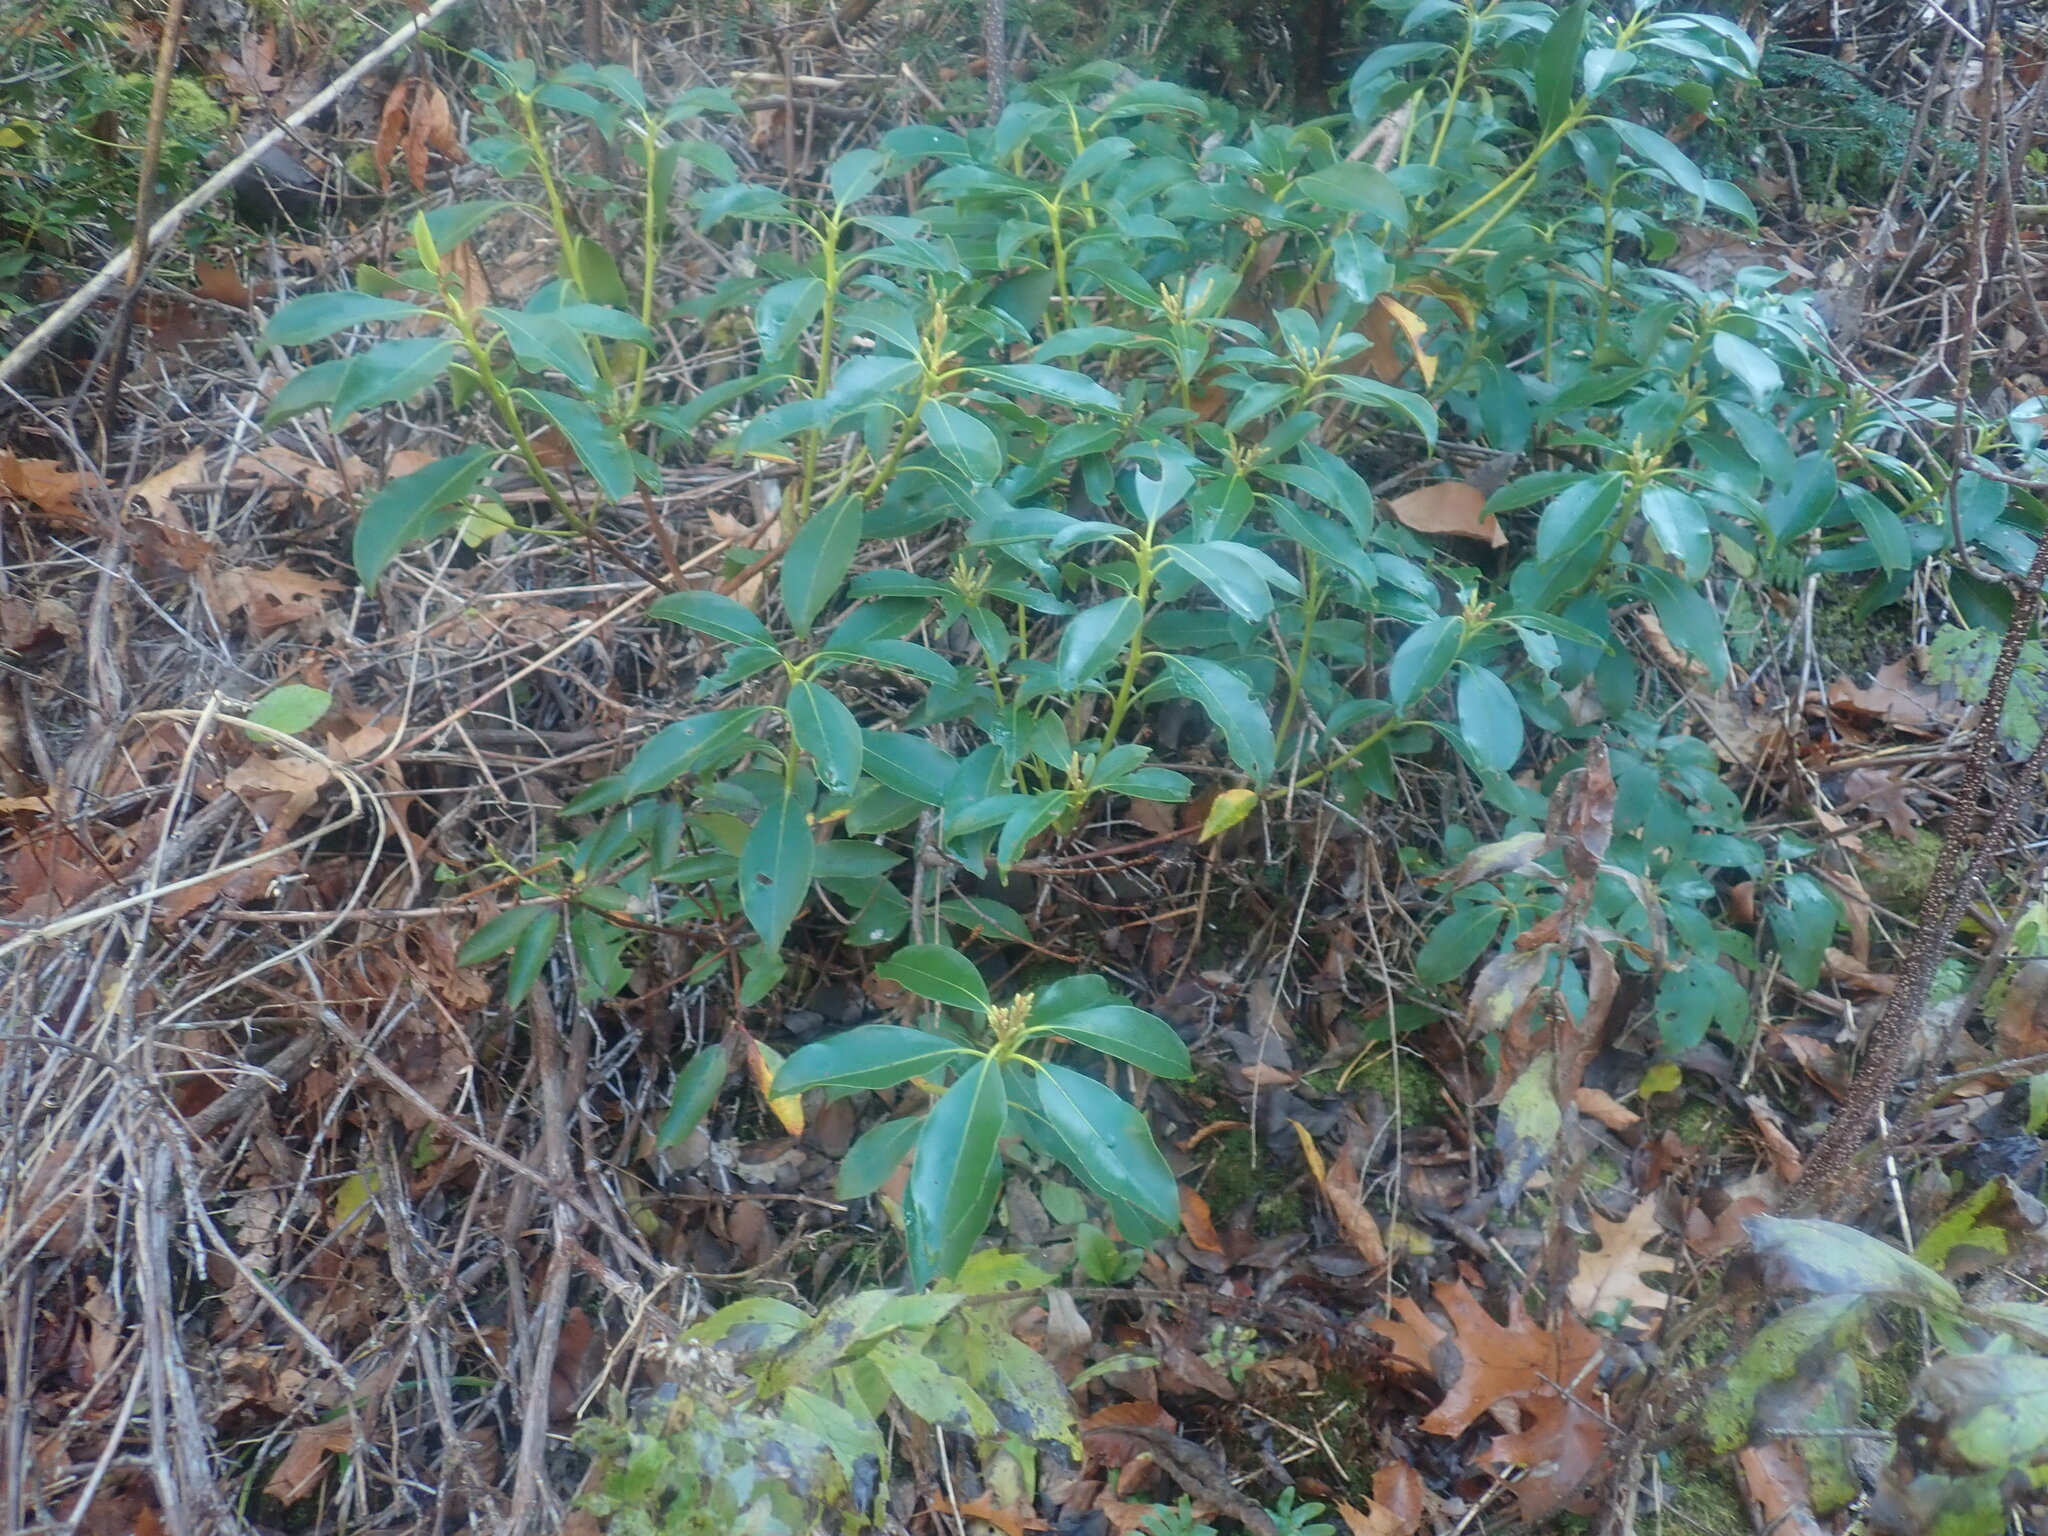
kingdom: Plantae
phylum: Tracheophyta
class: Magnoliopsida
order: Ericales
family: Ericaceae
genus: Kalmia
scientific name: Kalmia latifolia
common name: Mountain-laurel
